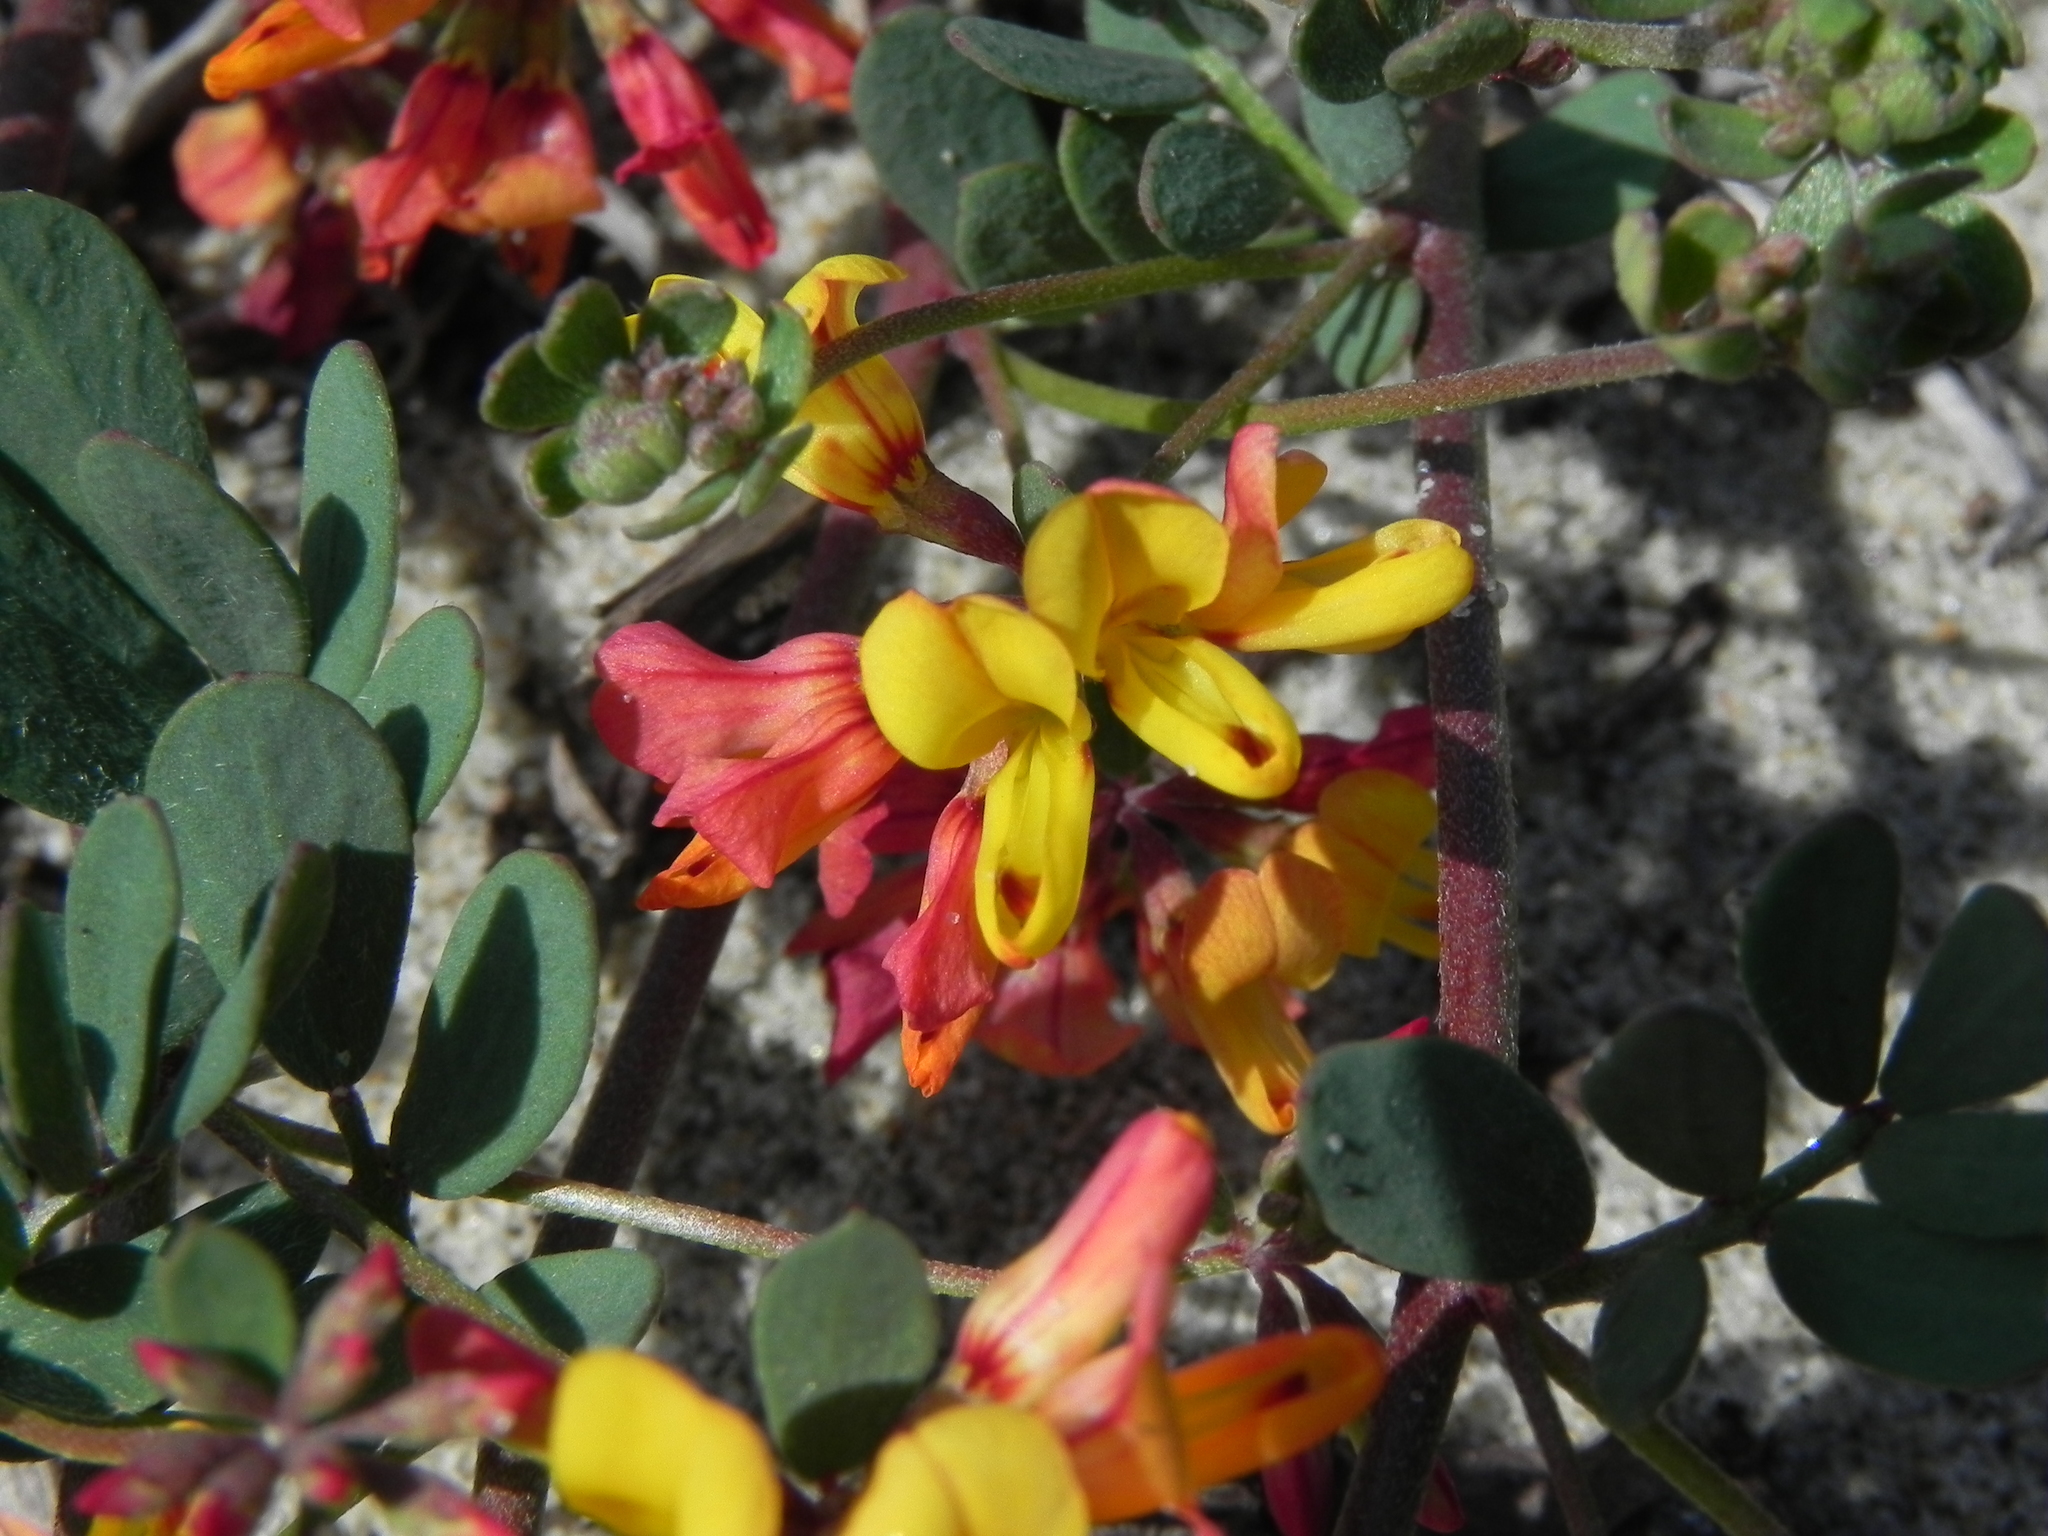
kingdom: Plantae
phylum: Tracheophyta
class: Magnoliopsida
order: Fabales
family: Fabaceae
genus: Acmispon
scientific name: Acmispon prostratus
